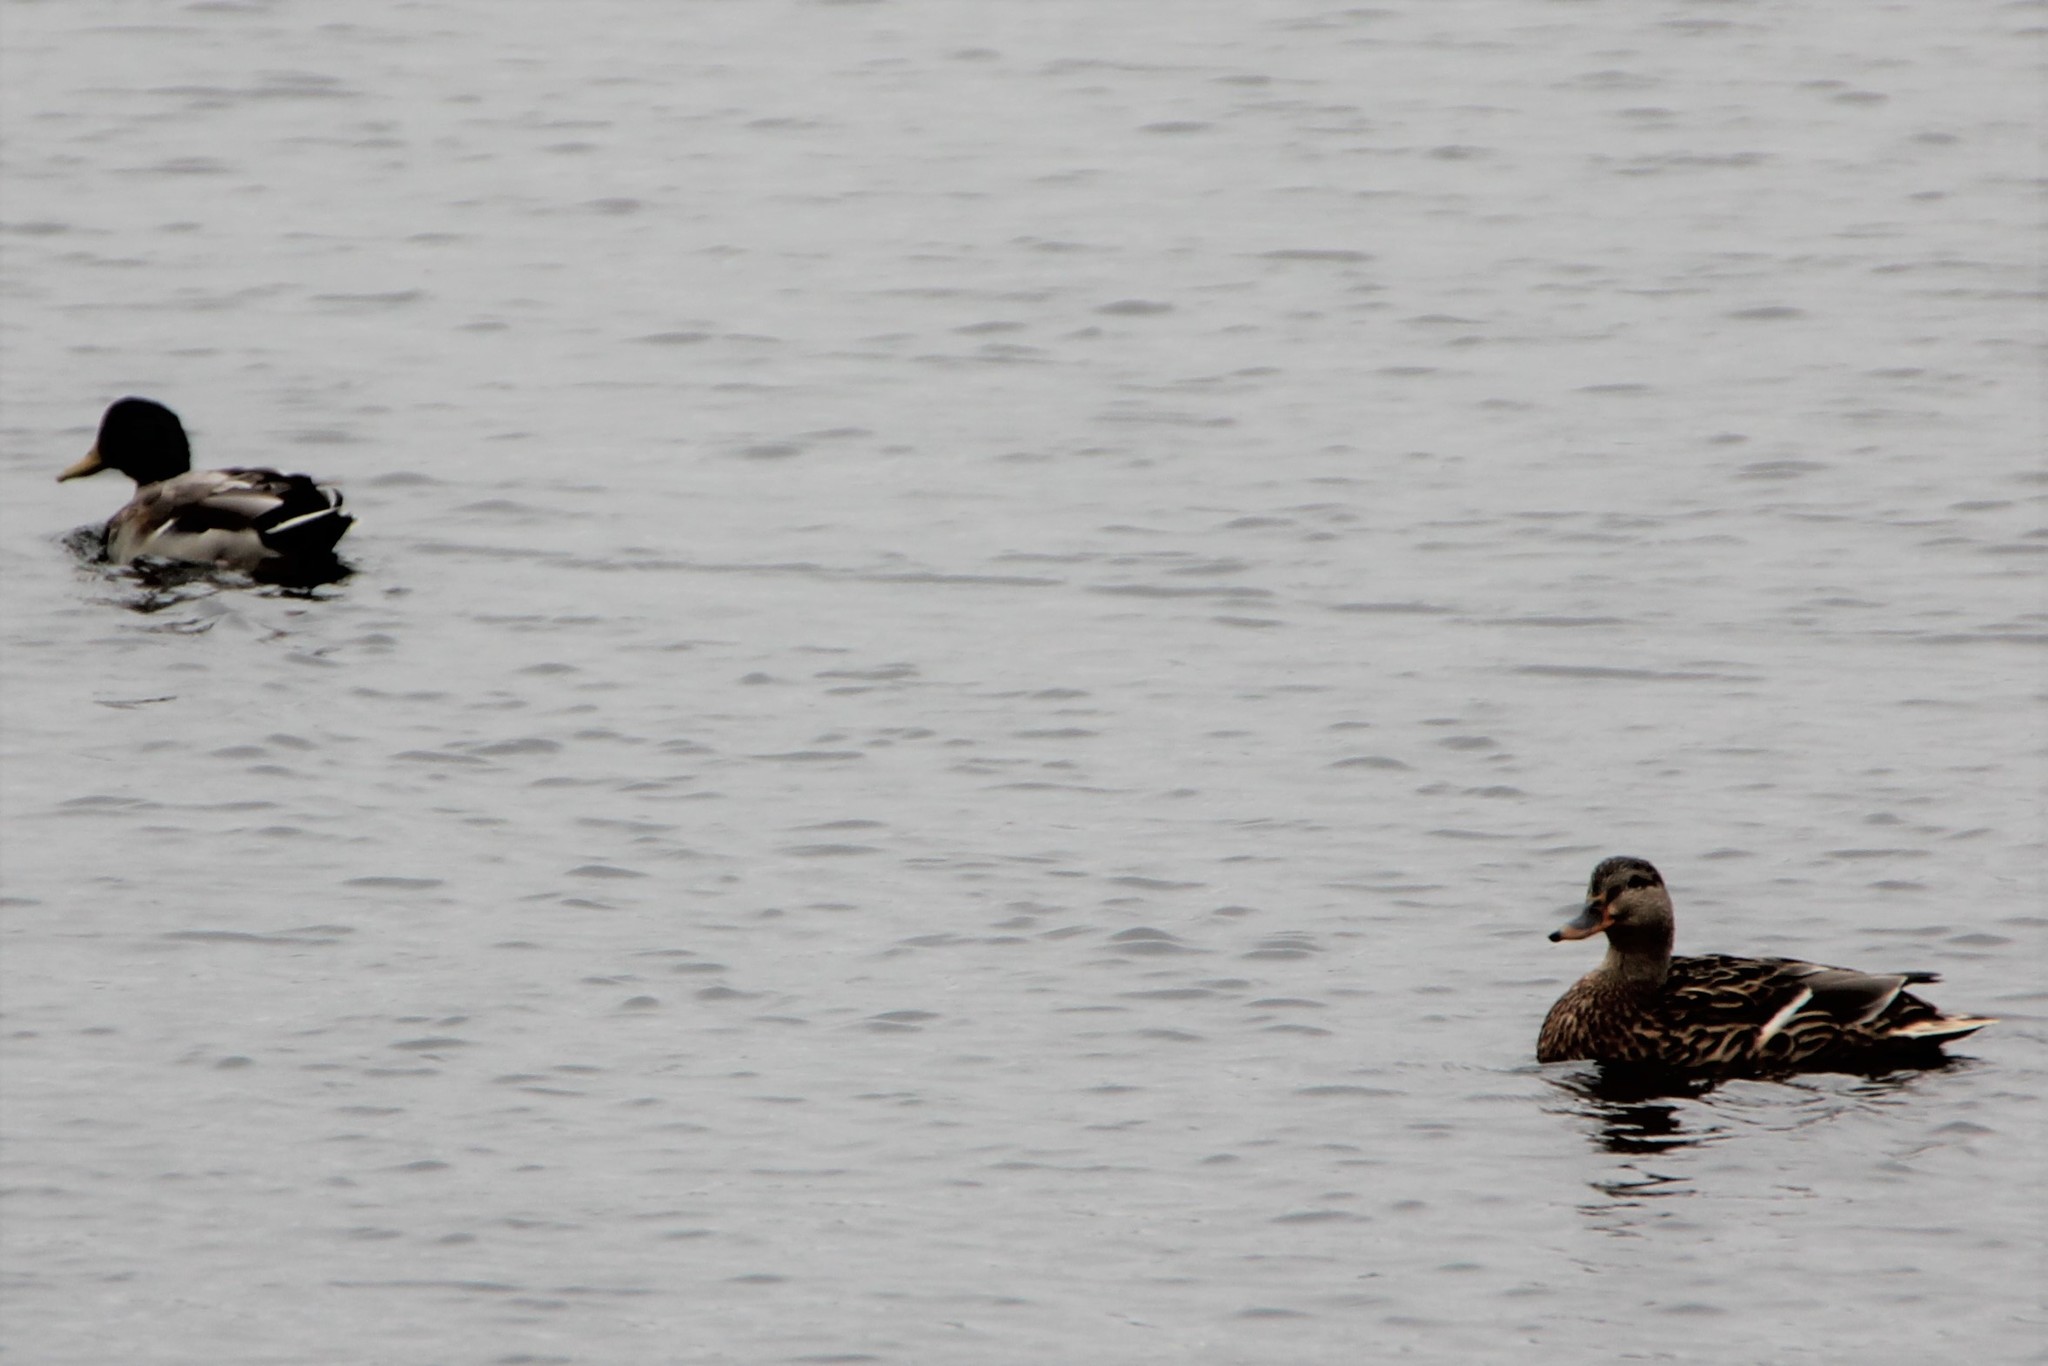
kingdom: Animalia
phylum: Chordata
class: Aves
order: Anseriformes
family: Anatidae
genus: Anas
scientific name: Anas platyrhynchos
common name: Mallard
